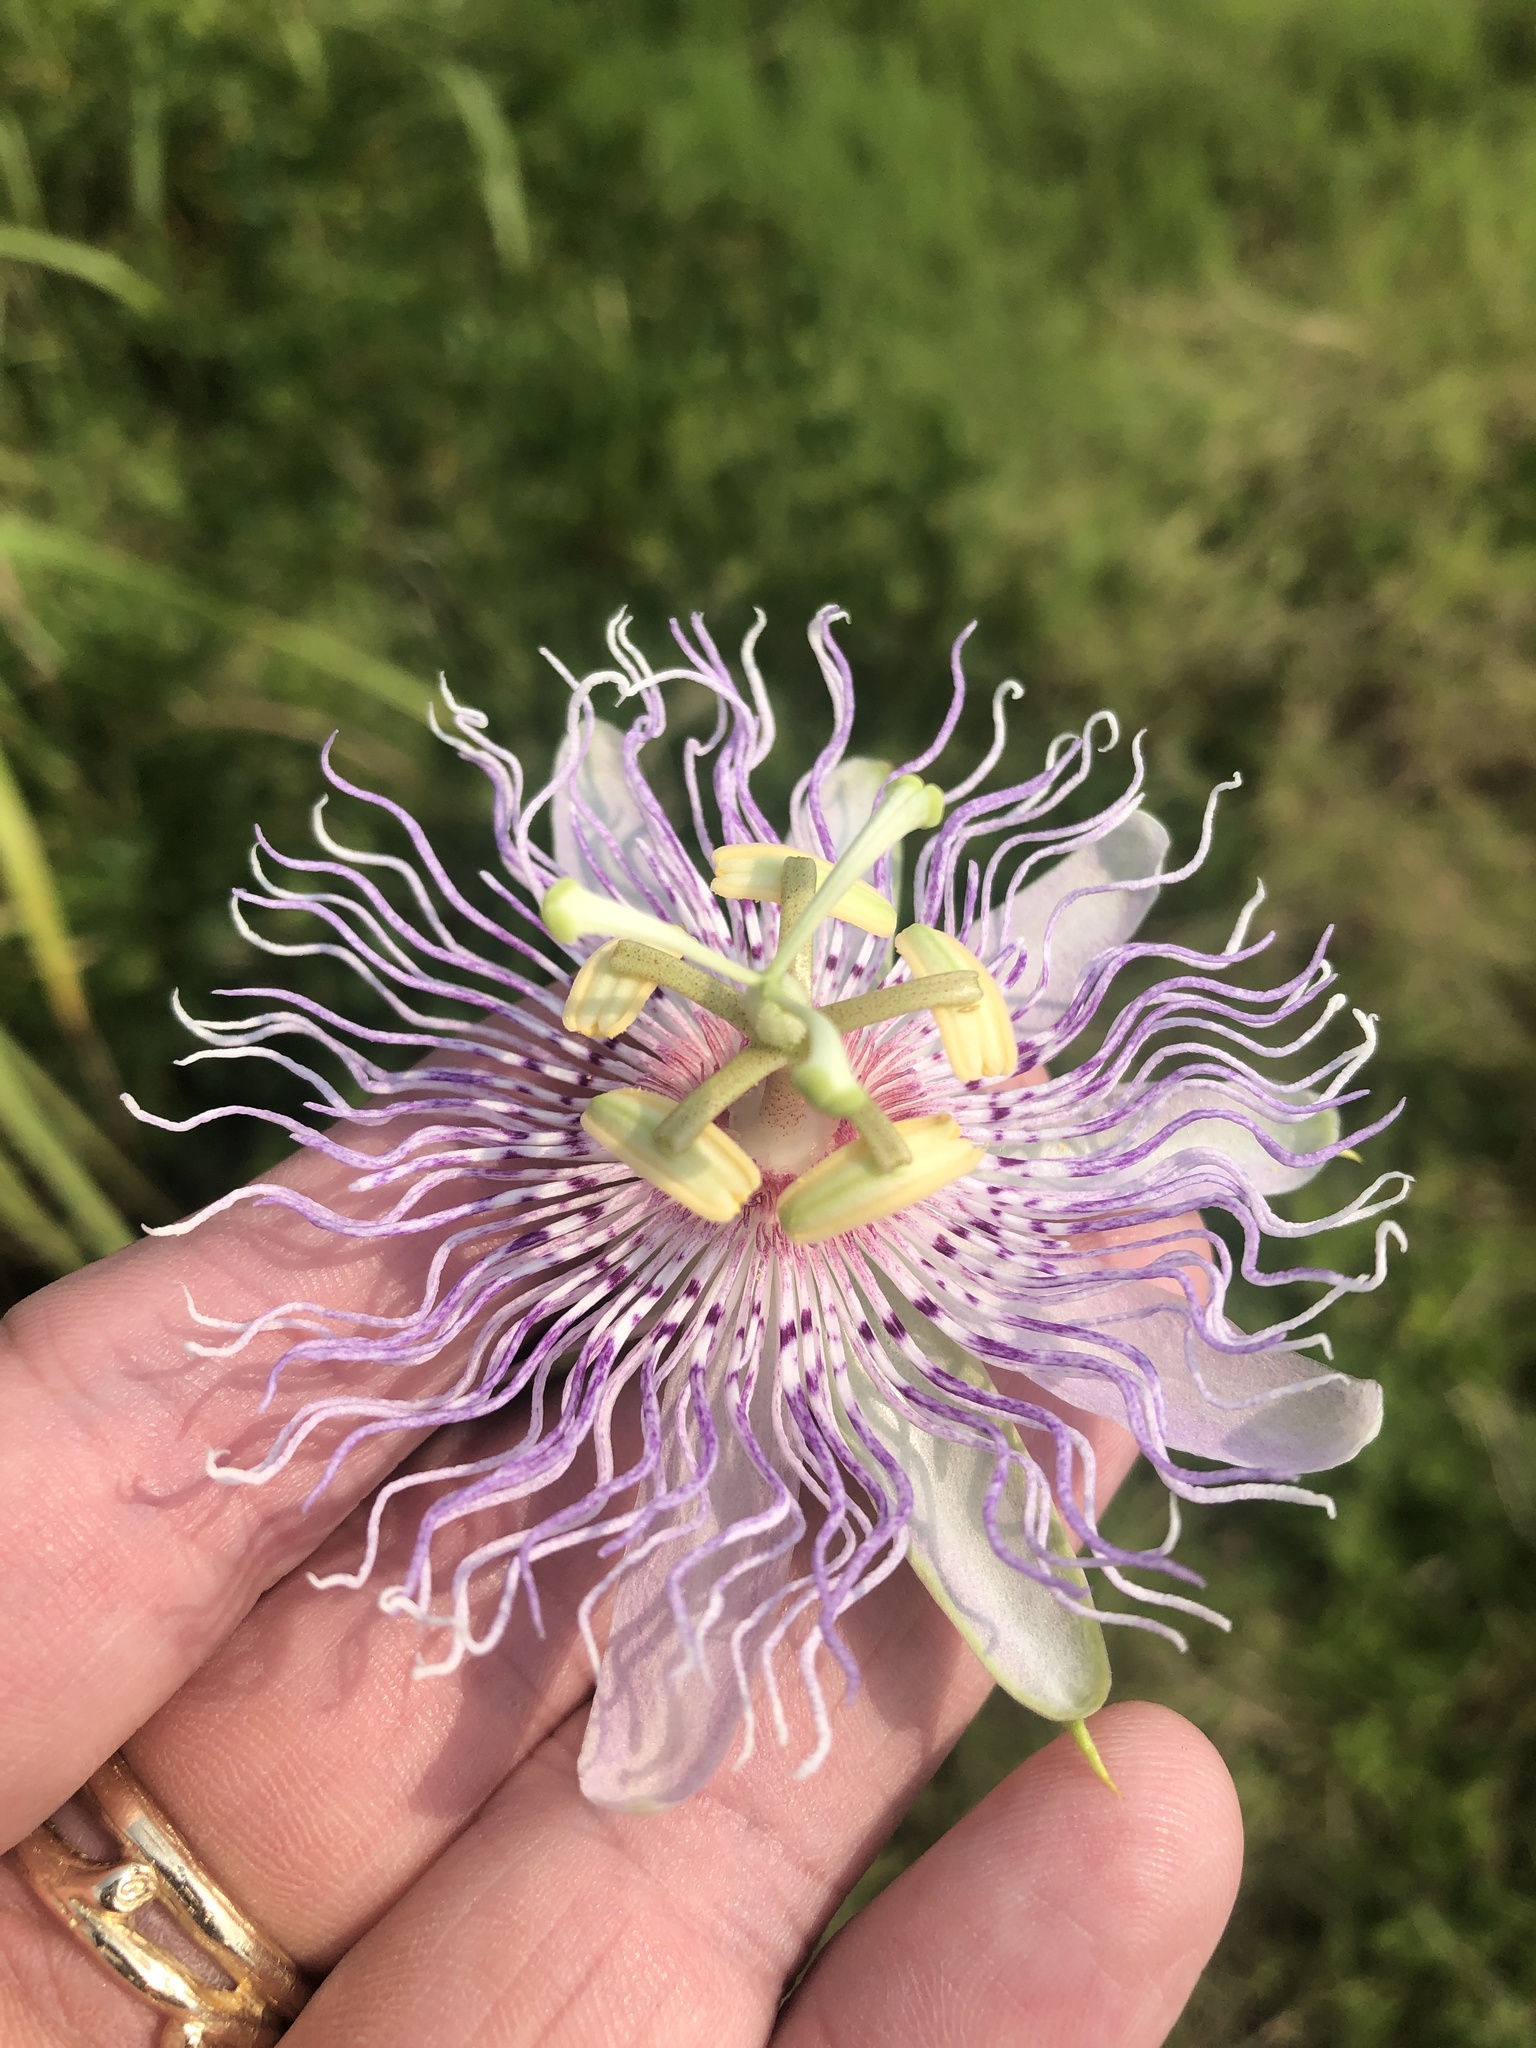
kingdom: Plantae
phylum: Tracheophyta
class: Magnoliopsida
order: Malpighiales
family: Passifloraceae
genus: Passiflora
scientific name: Passiflora incarnata
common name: Apricot-vine
